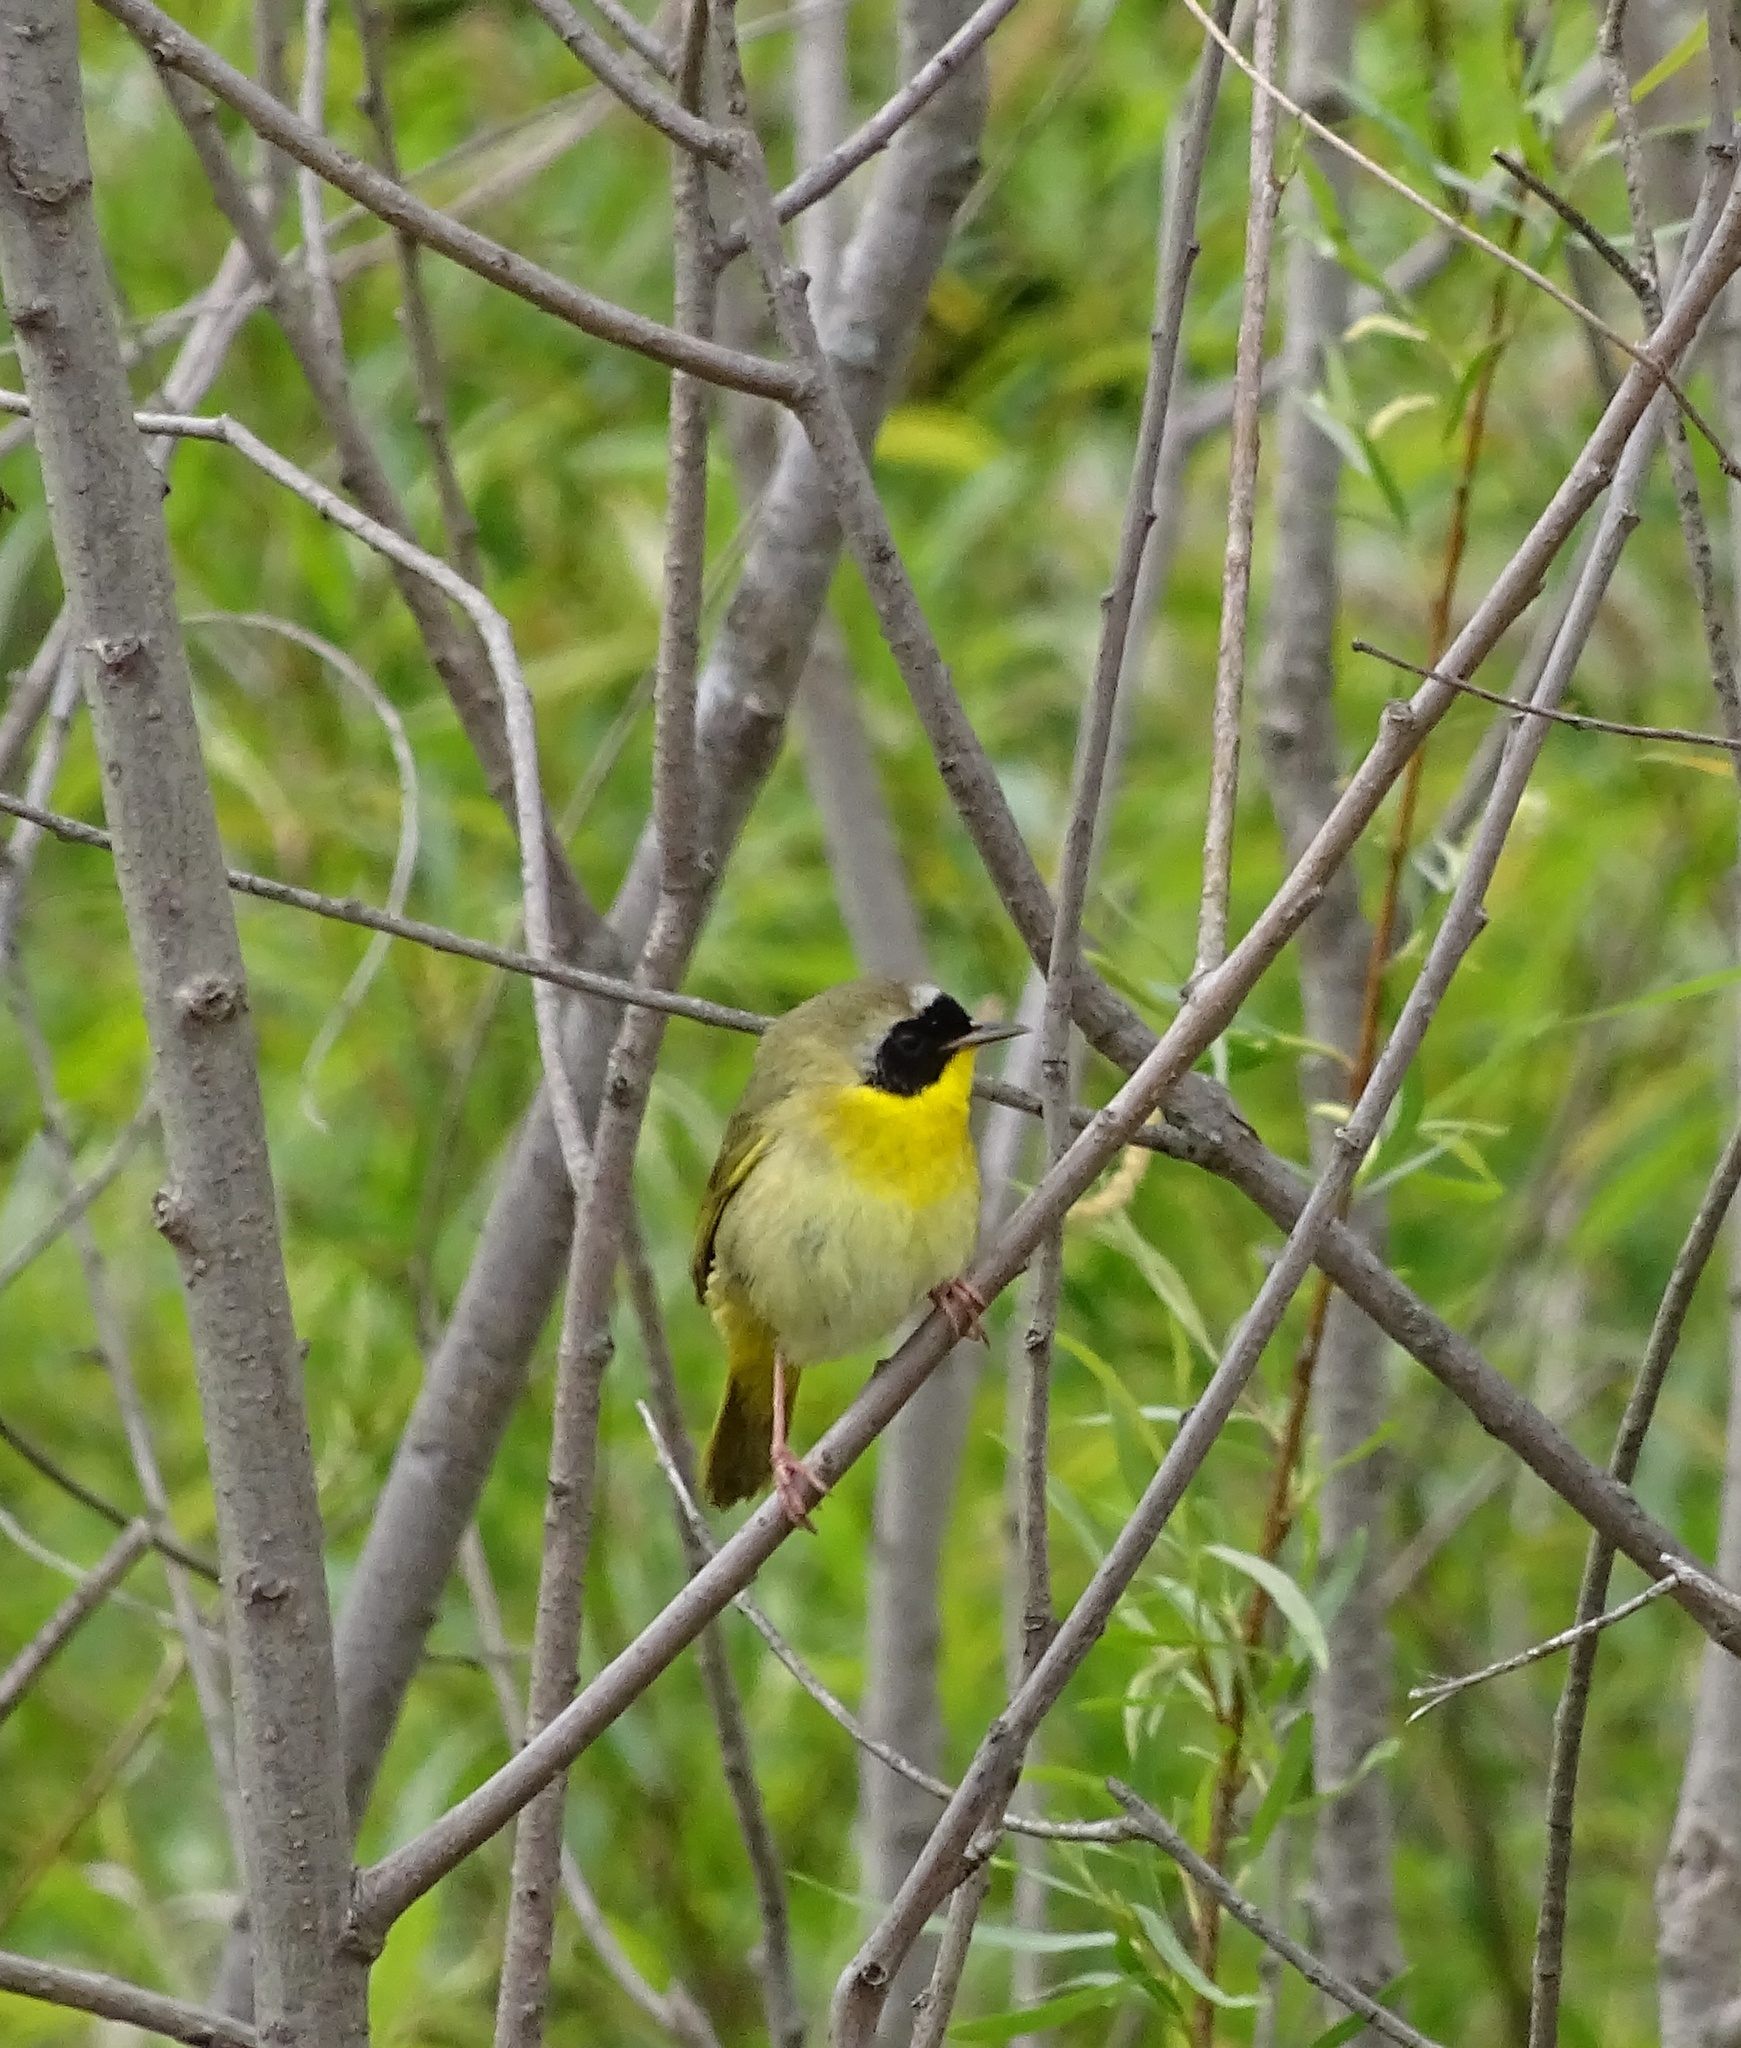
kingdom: Animalia
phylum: Chordata
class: Aves
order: Passeriformes
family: Parulidae
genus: Geothlypis
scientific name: Geothlypis trichas
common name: Common yellowthroat
